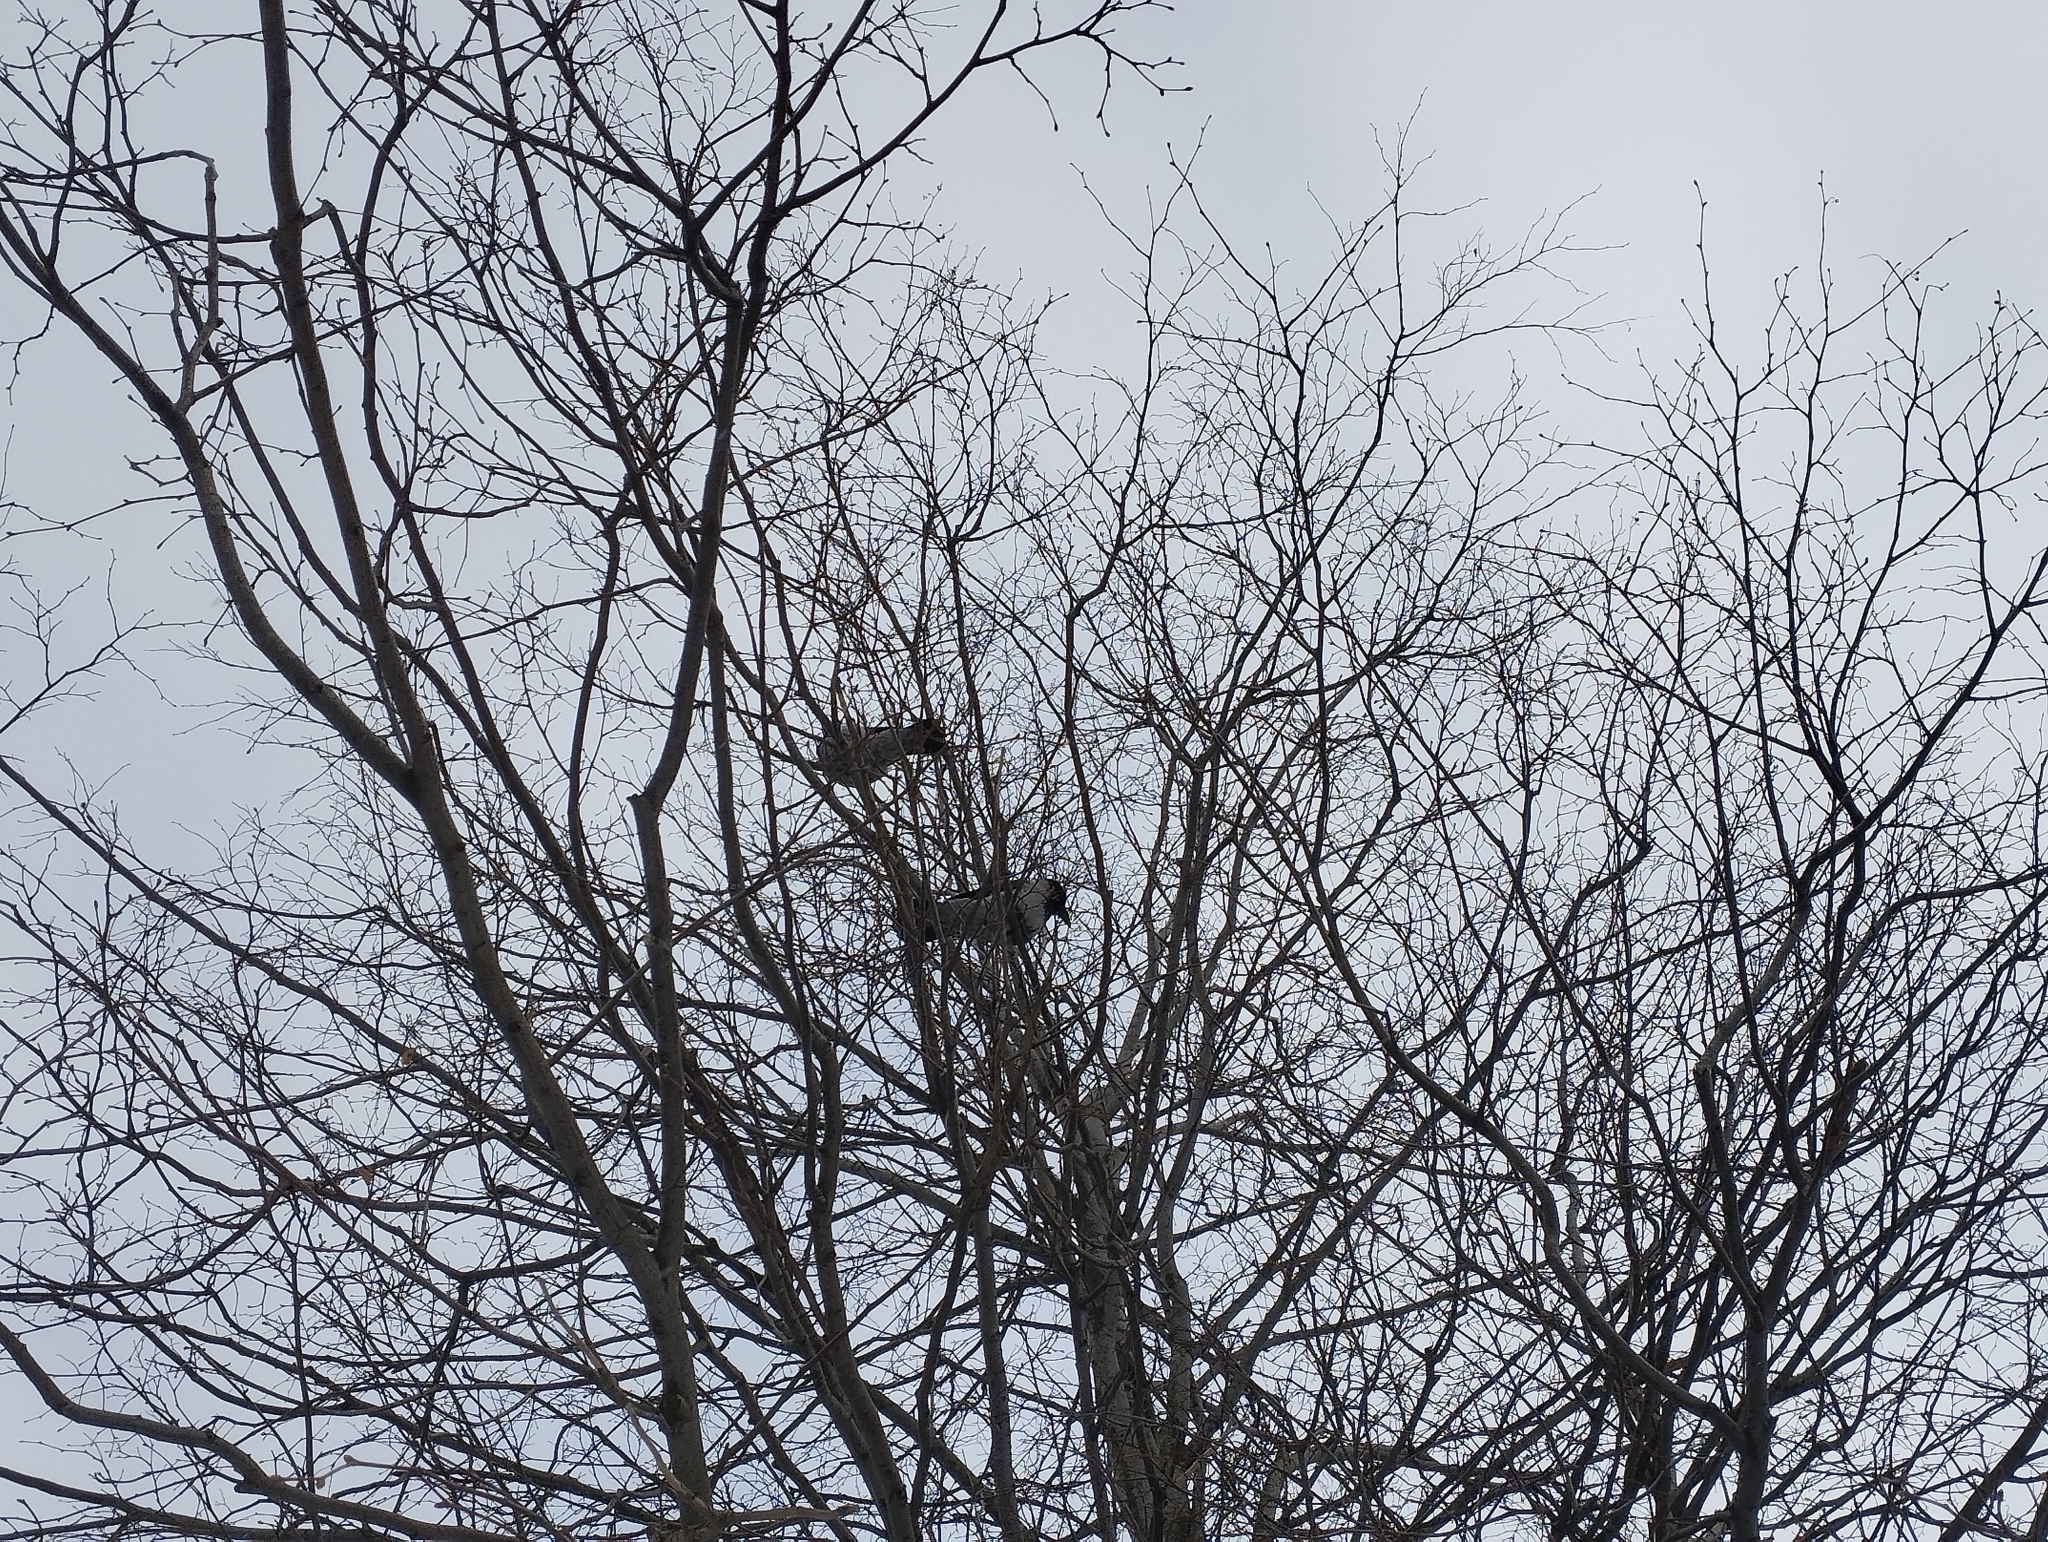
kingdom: Animalia
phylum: Chordata
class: Aves
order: Passeriformes
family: Corvidae
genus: Corvus
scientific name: Corvus cornix
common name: Hooded crow
